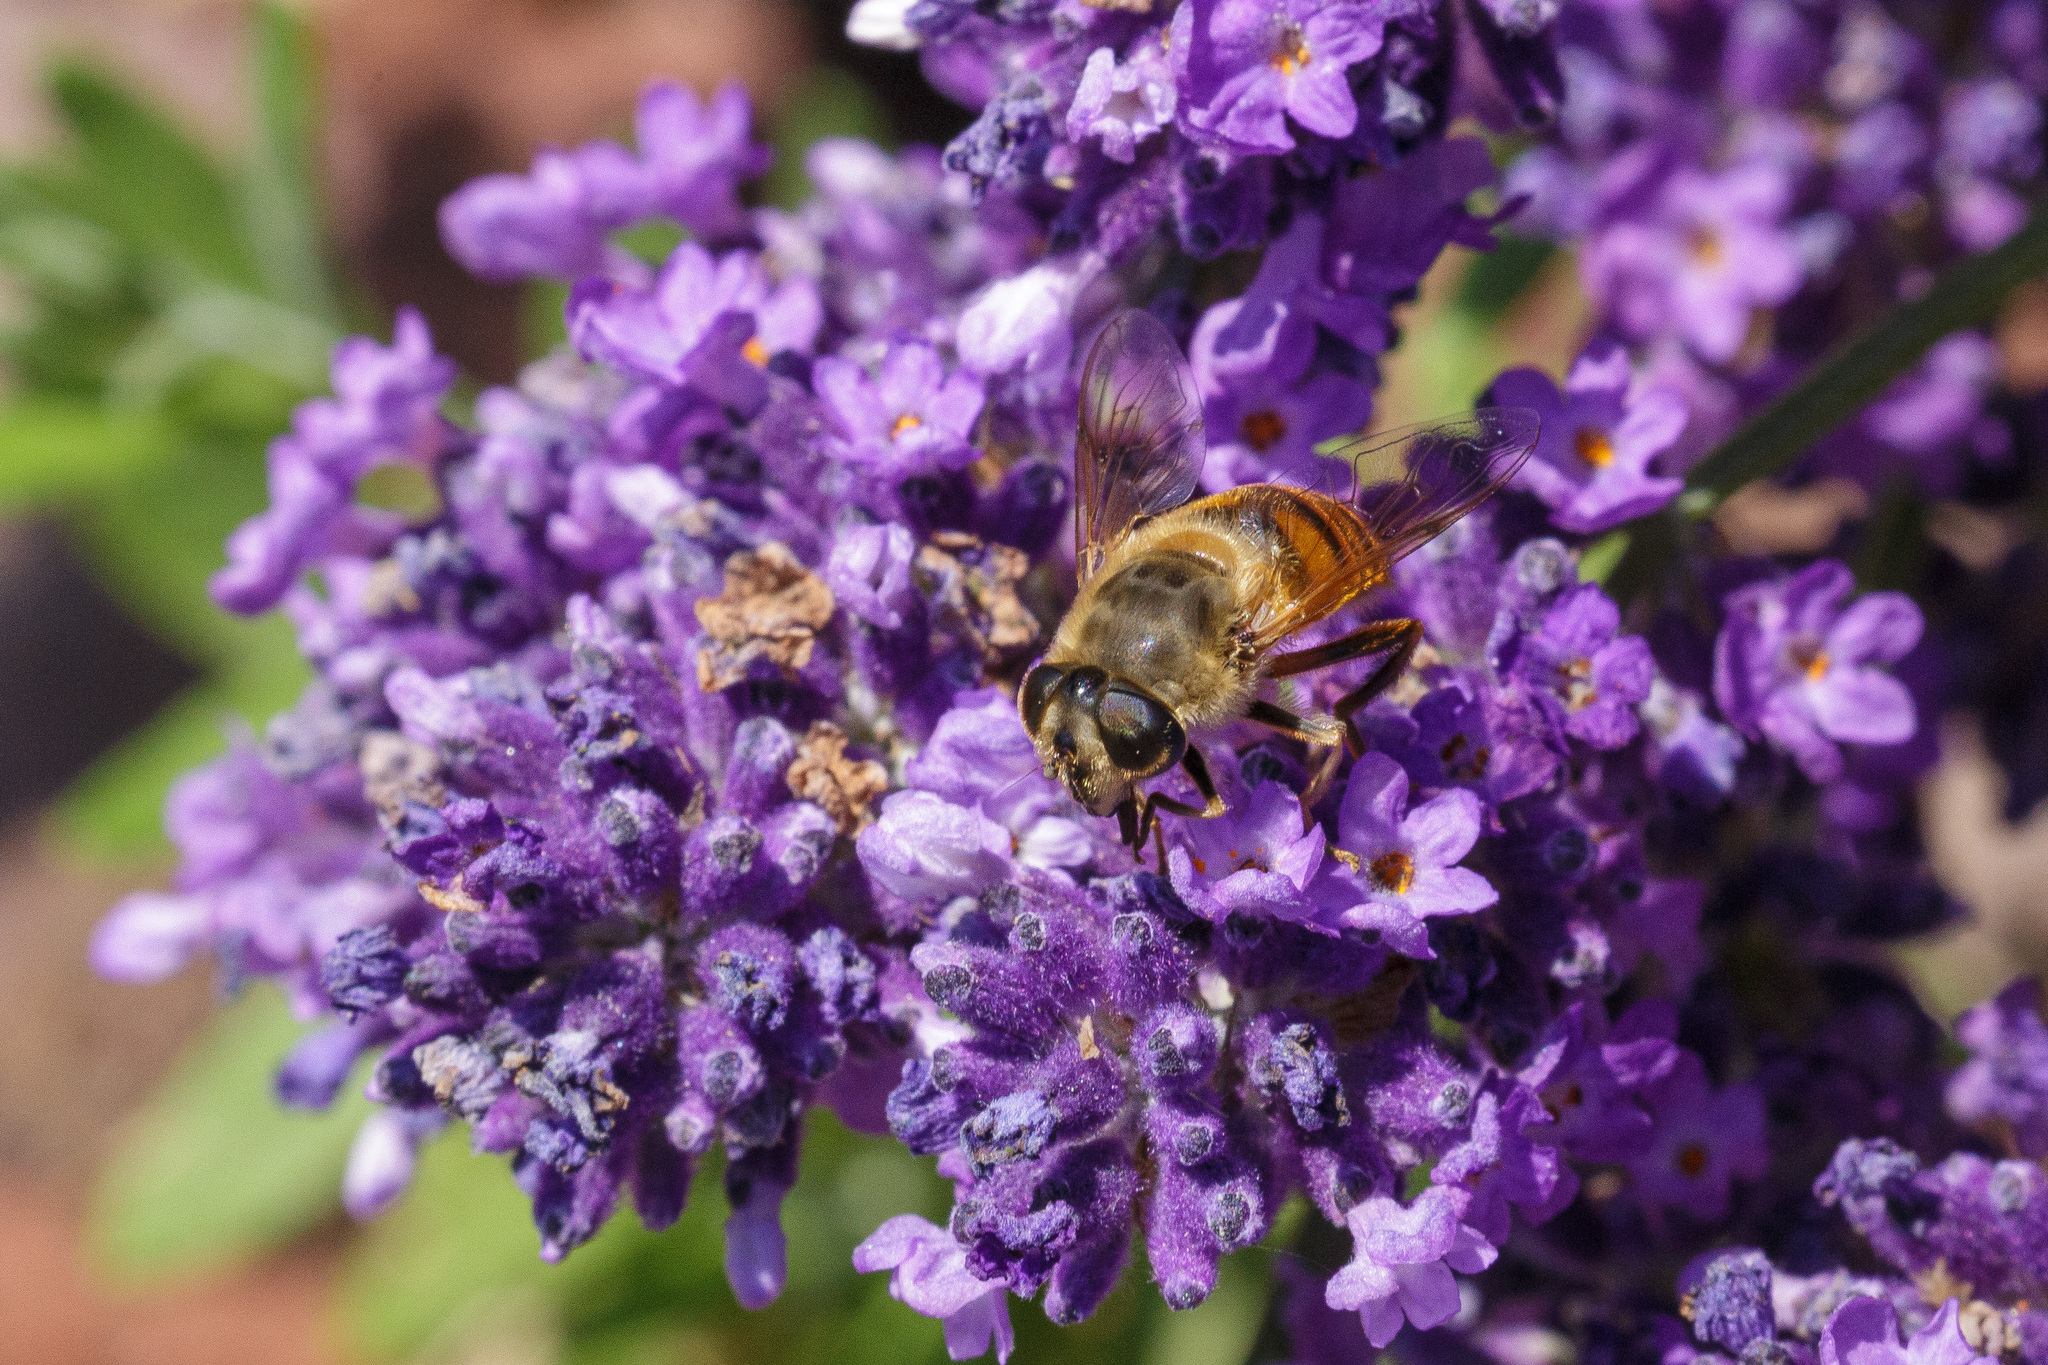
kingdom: Animalia
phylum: Arthropoda
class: Insecta
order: Diptera
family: Syrphidae
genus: Eristalis
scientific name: Eristalis tenax
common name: Drone fly
